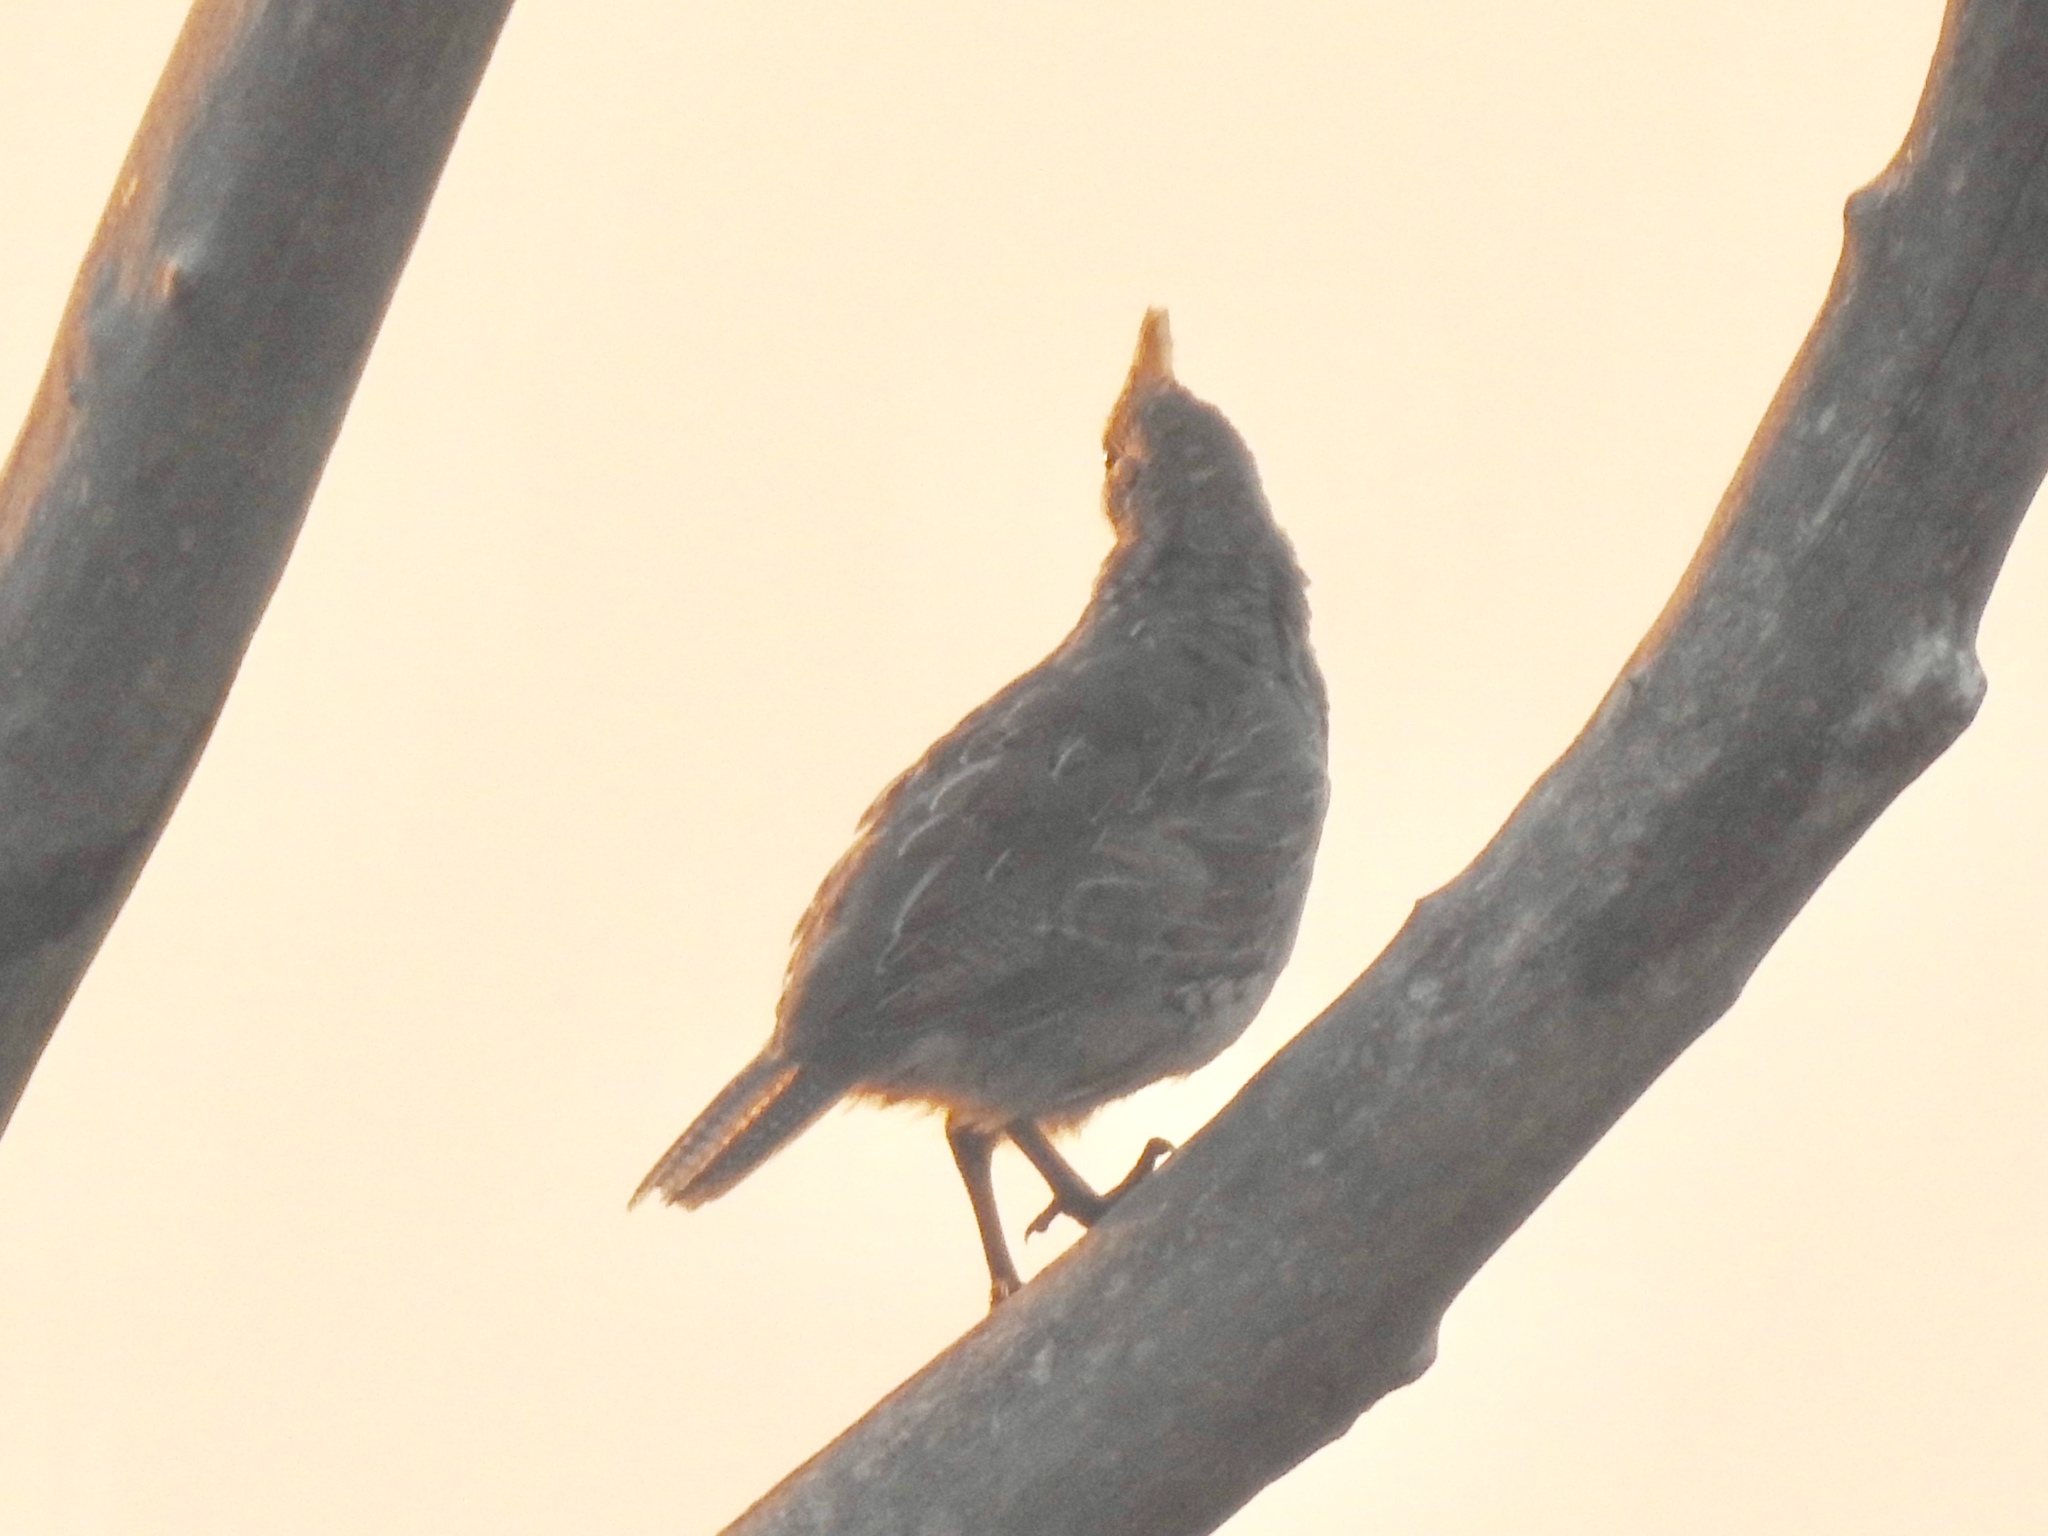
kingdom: Animalia
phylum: Chordata
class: Aves
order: Galliformes
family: Odontophoridae
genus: Callipepla
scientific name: Callipepla squamata
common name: Scaled quail
